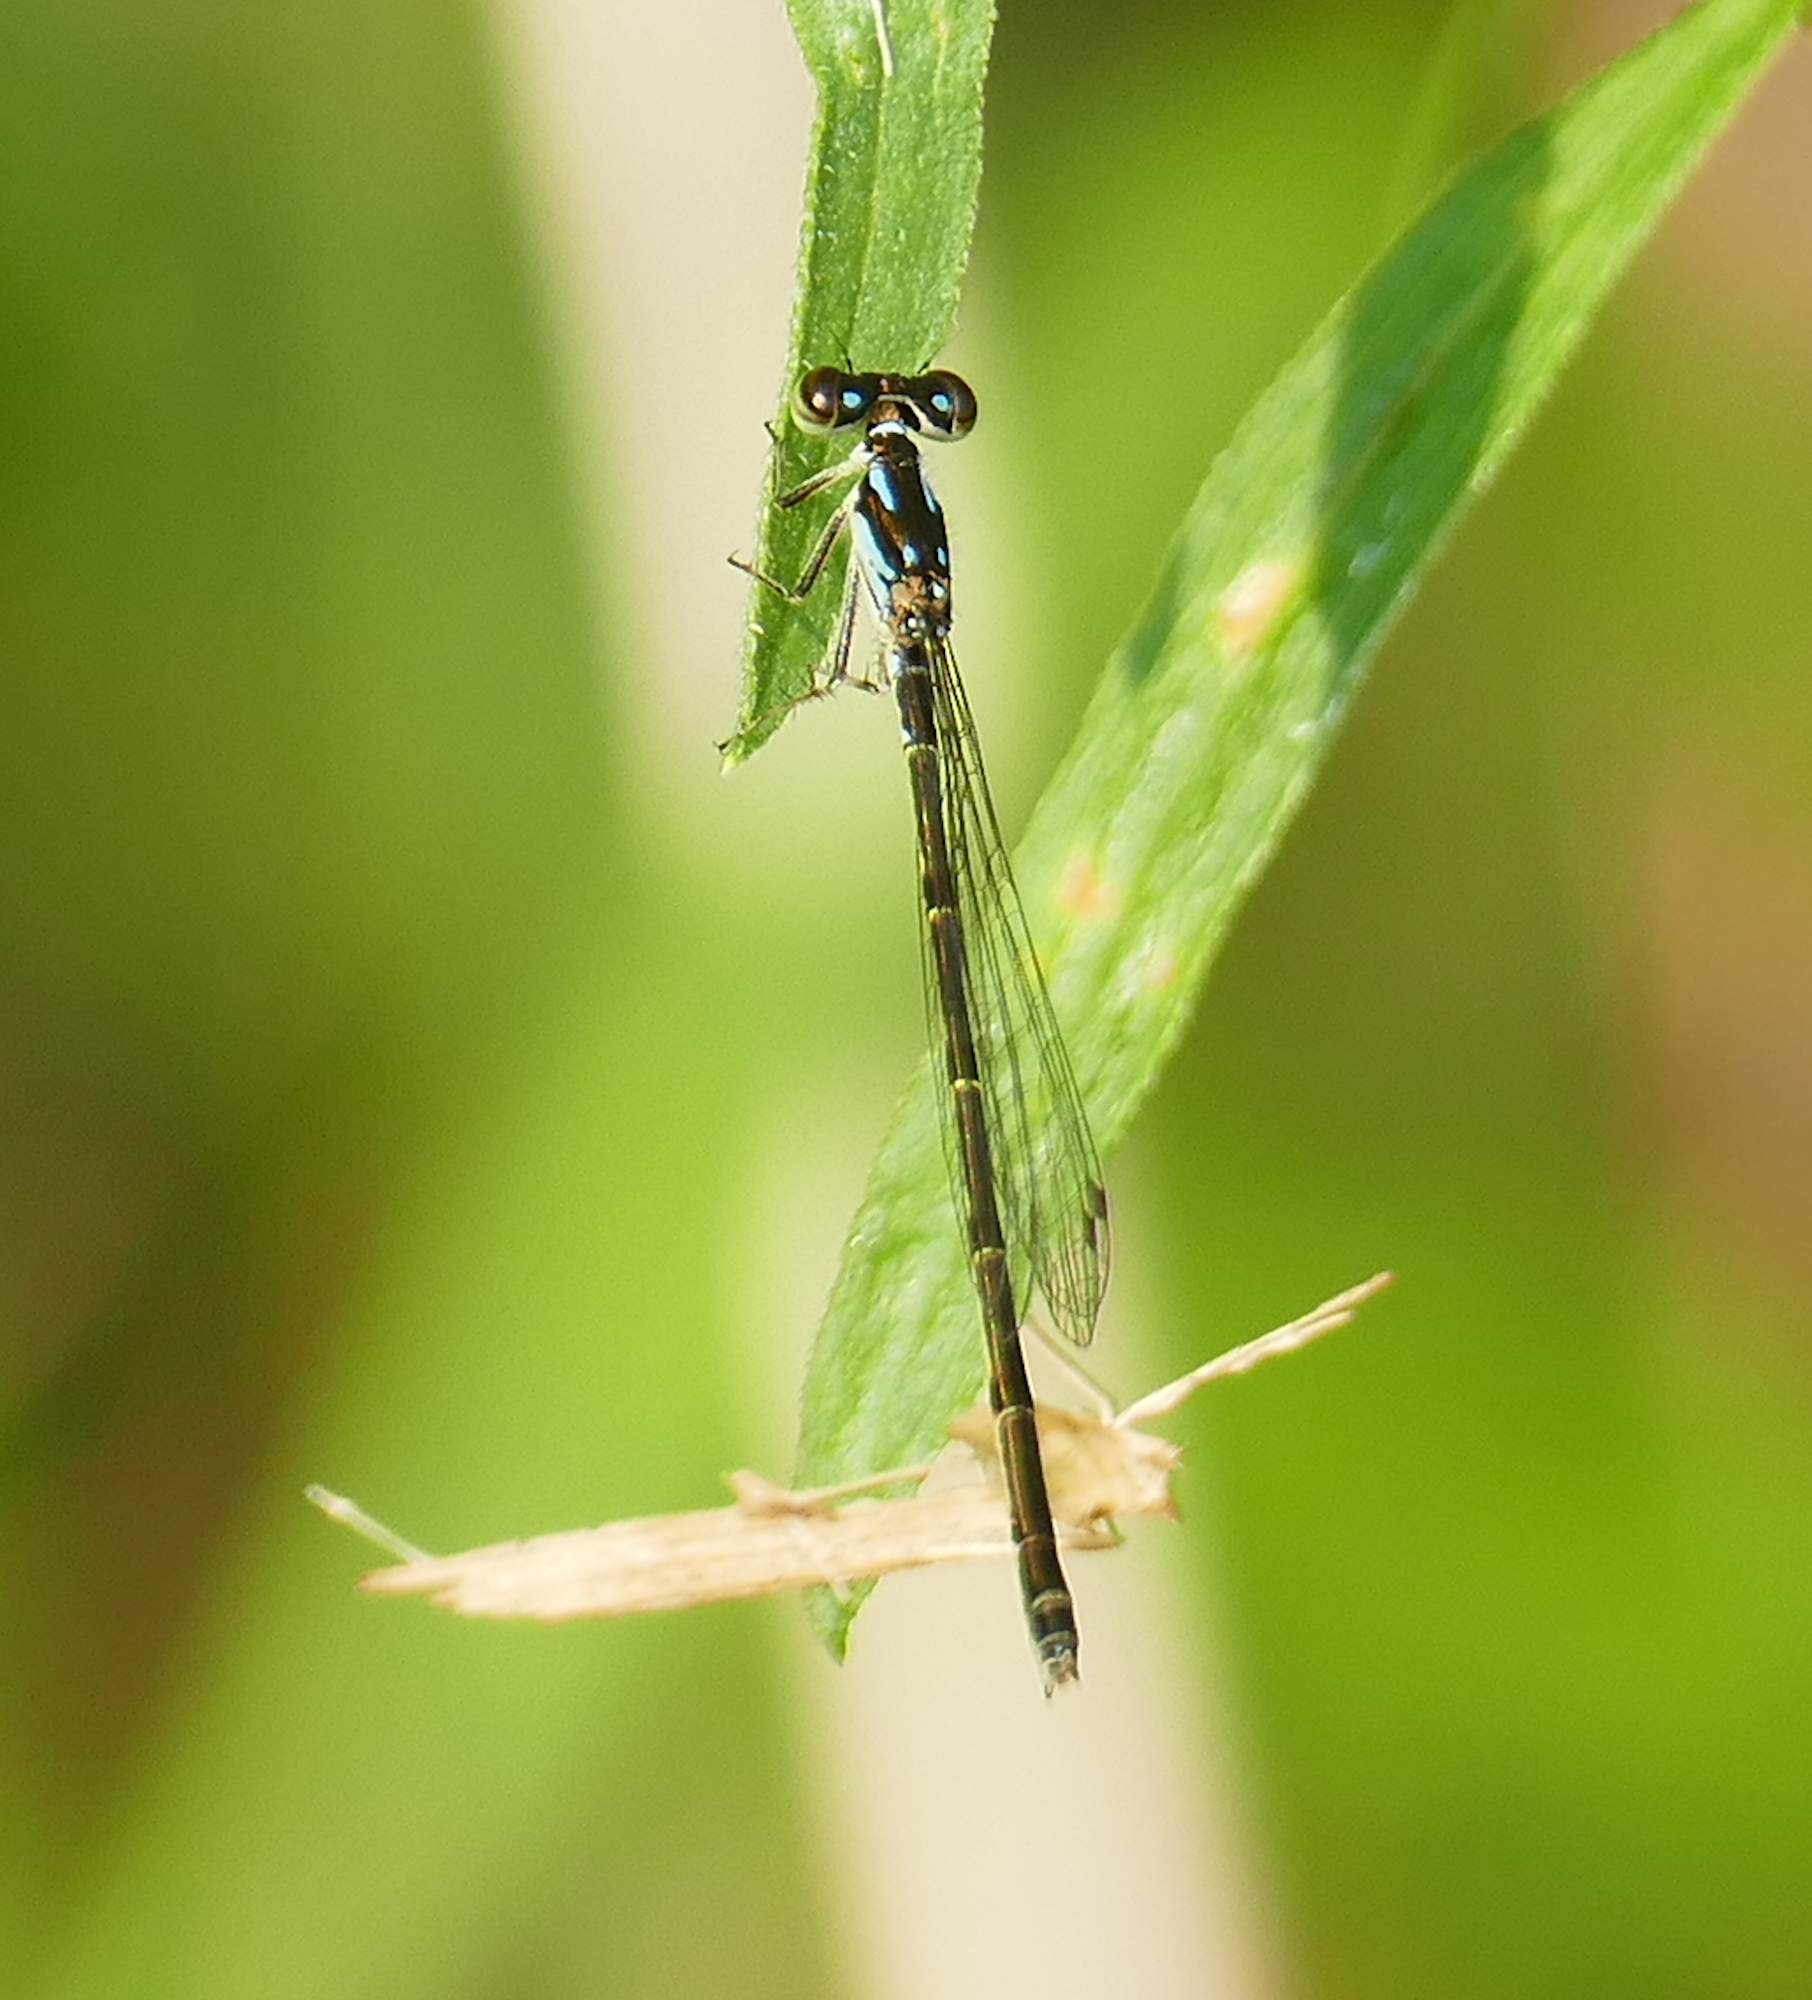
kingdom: Animalia
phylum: Arthropoda
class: Insecta
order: Odonata
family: Coenagrionidae
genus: Ischnura
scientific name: Ischnura posita
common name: Fragile forktail
